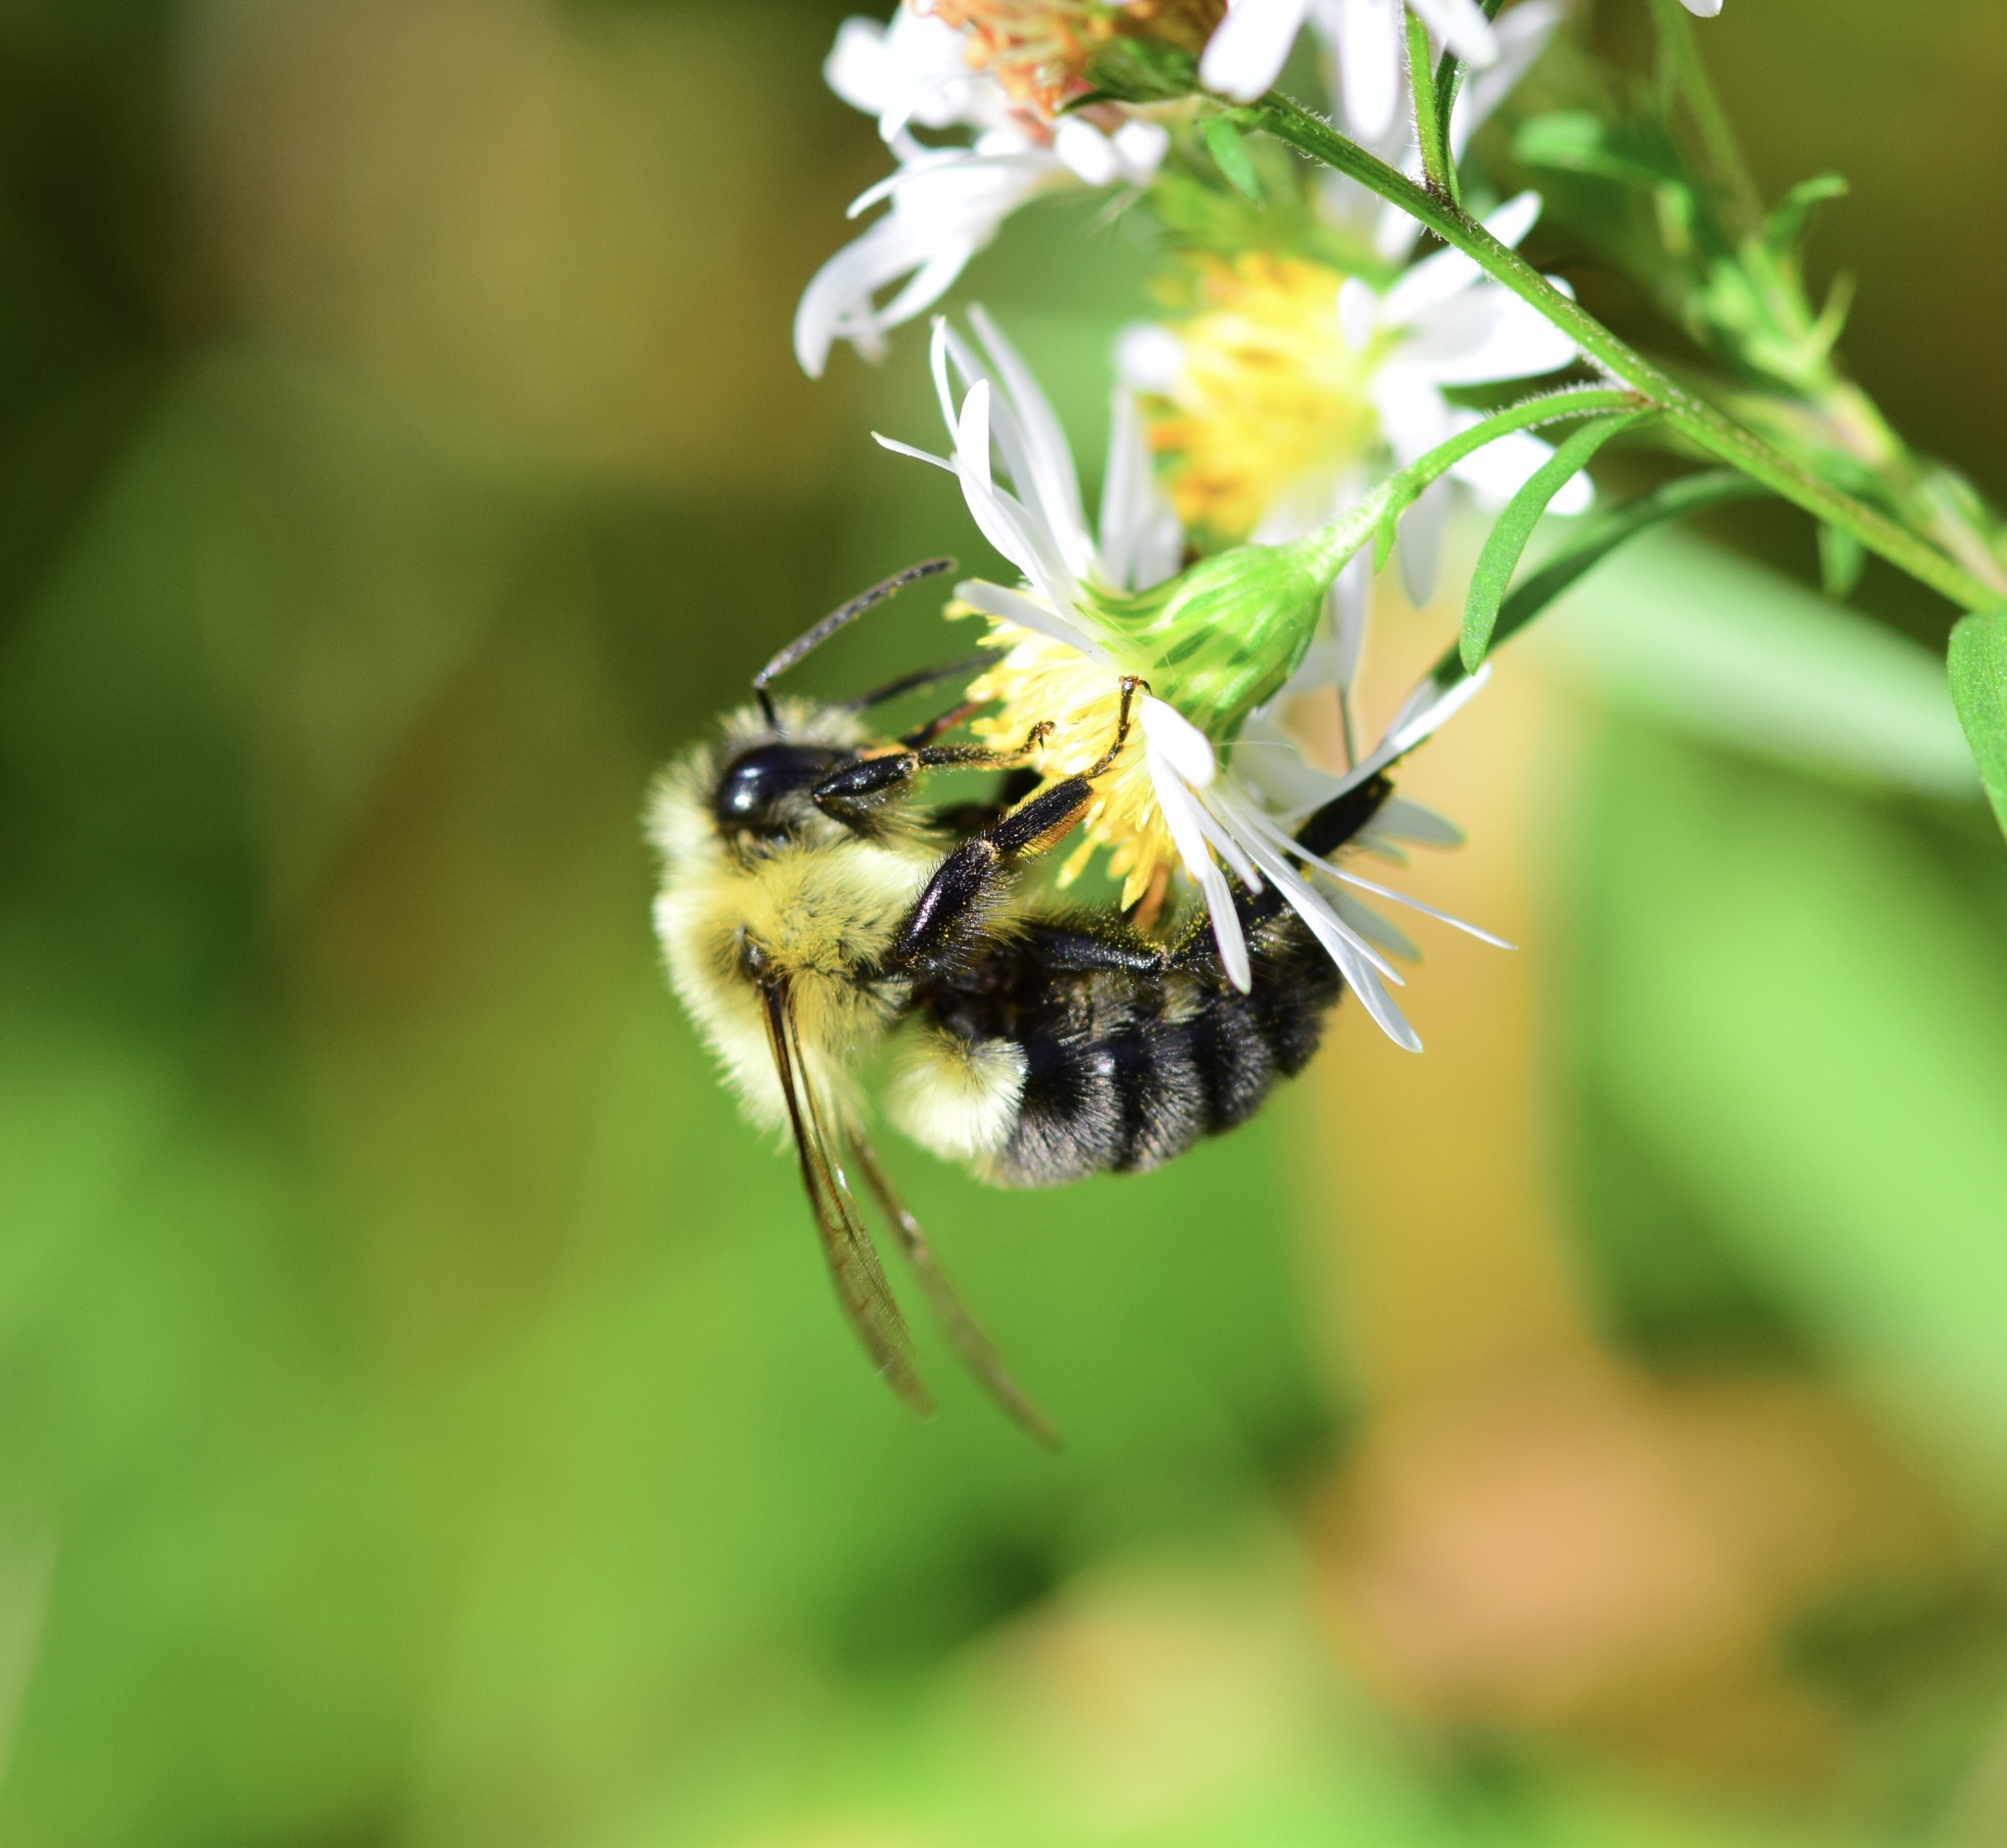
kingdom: Animalia
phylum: Arthropoda
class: Insecta
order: Hymenoptera
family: Apidae
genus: Bombus
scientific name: Bombus impatiens
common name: Common eastern bumble bee
